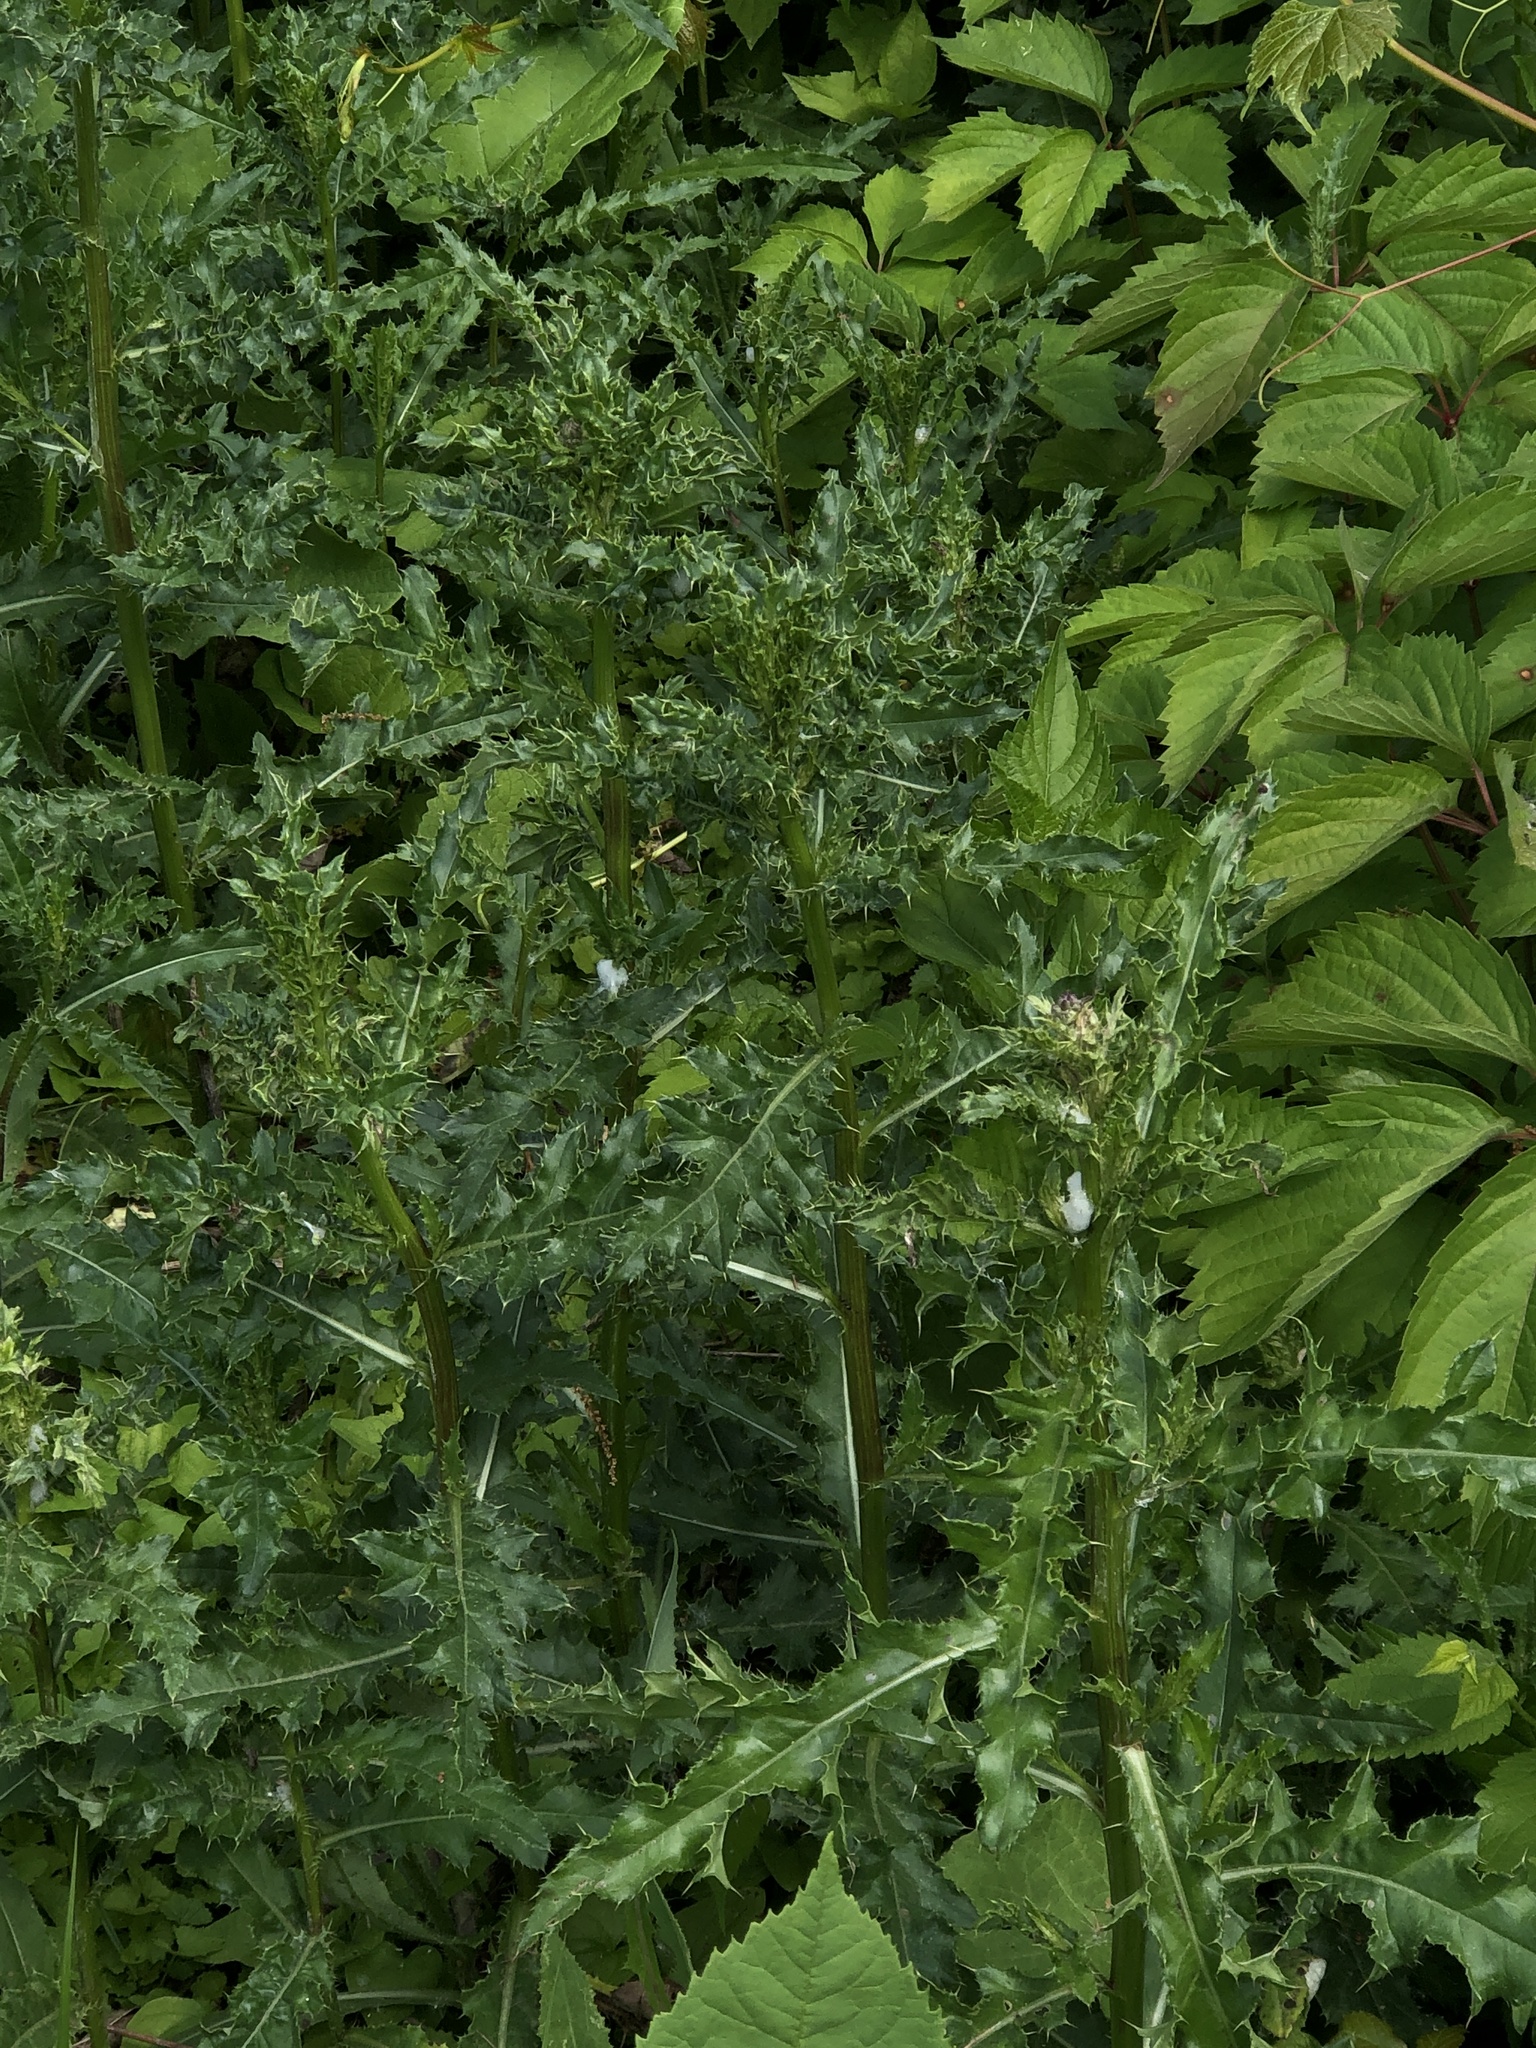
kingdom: Plantae
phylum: Tracheophyta
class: Magnoliopsida
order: Asterales
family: Asteraceae
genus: Cirsium
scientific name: Cirsium arvense
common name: Creeping thistle
